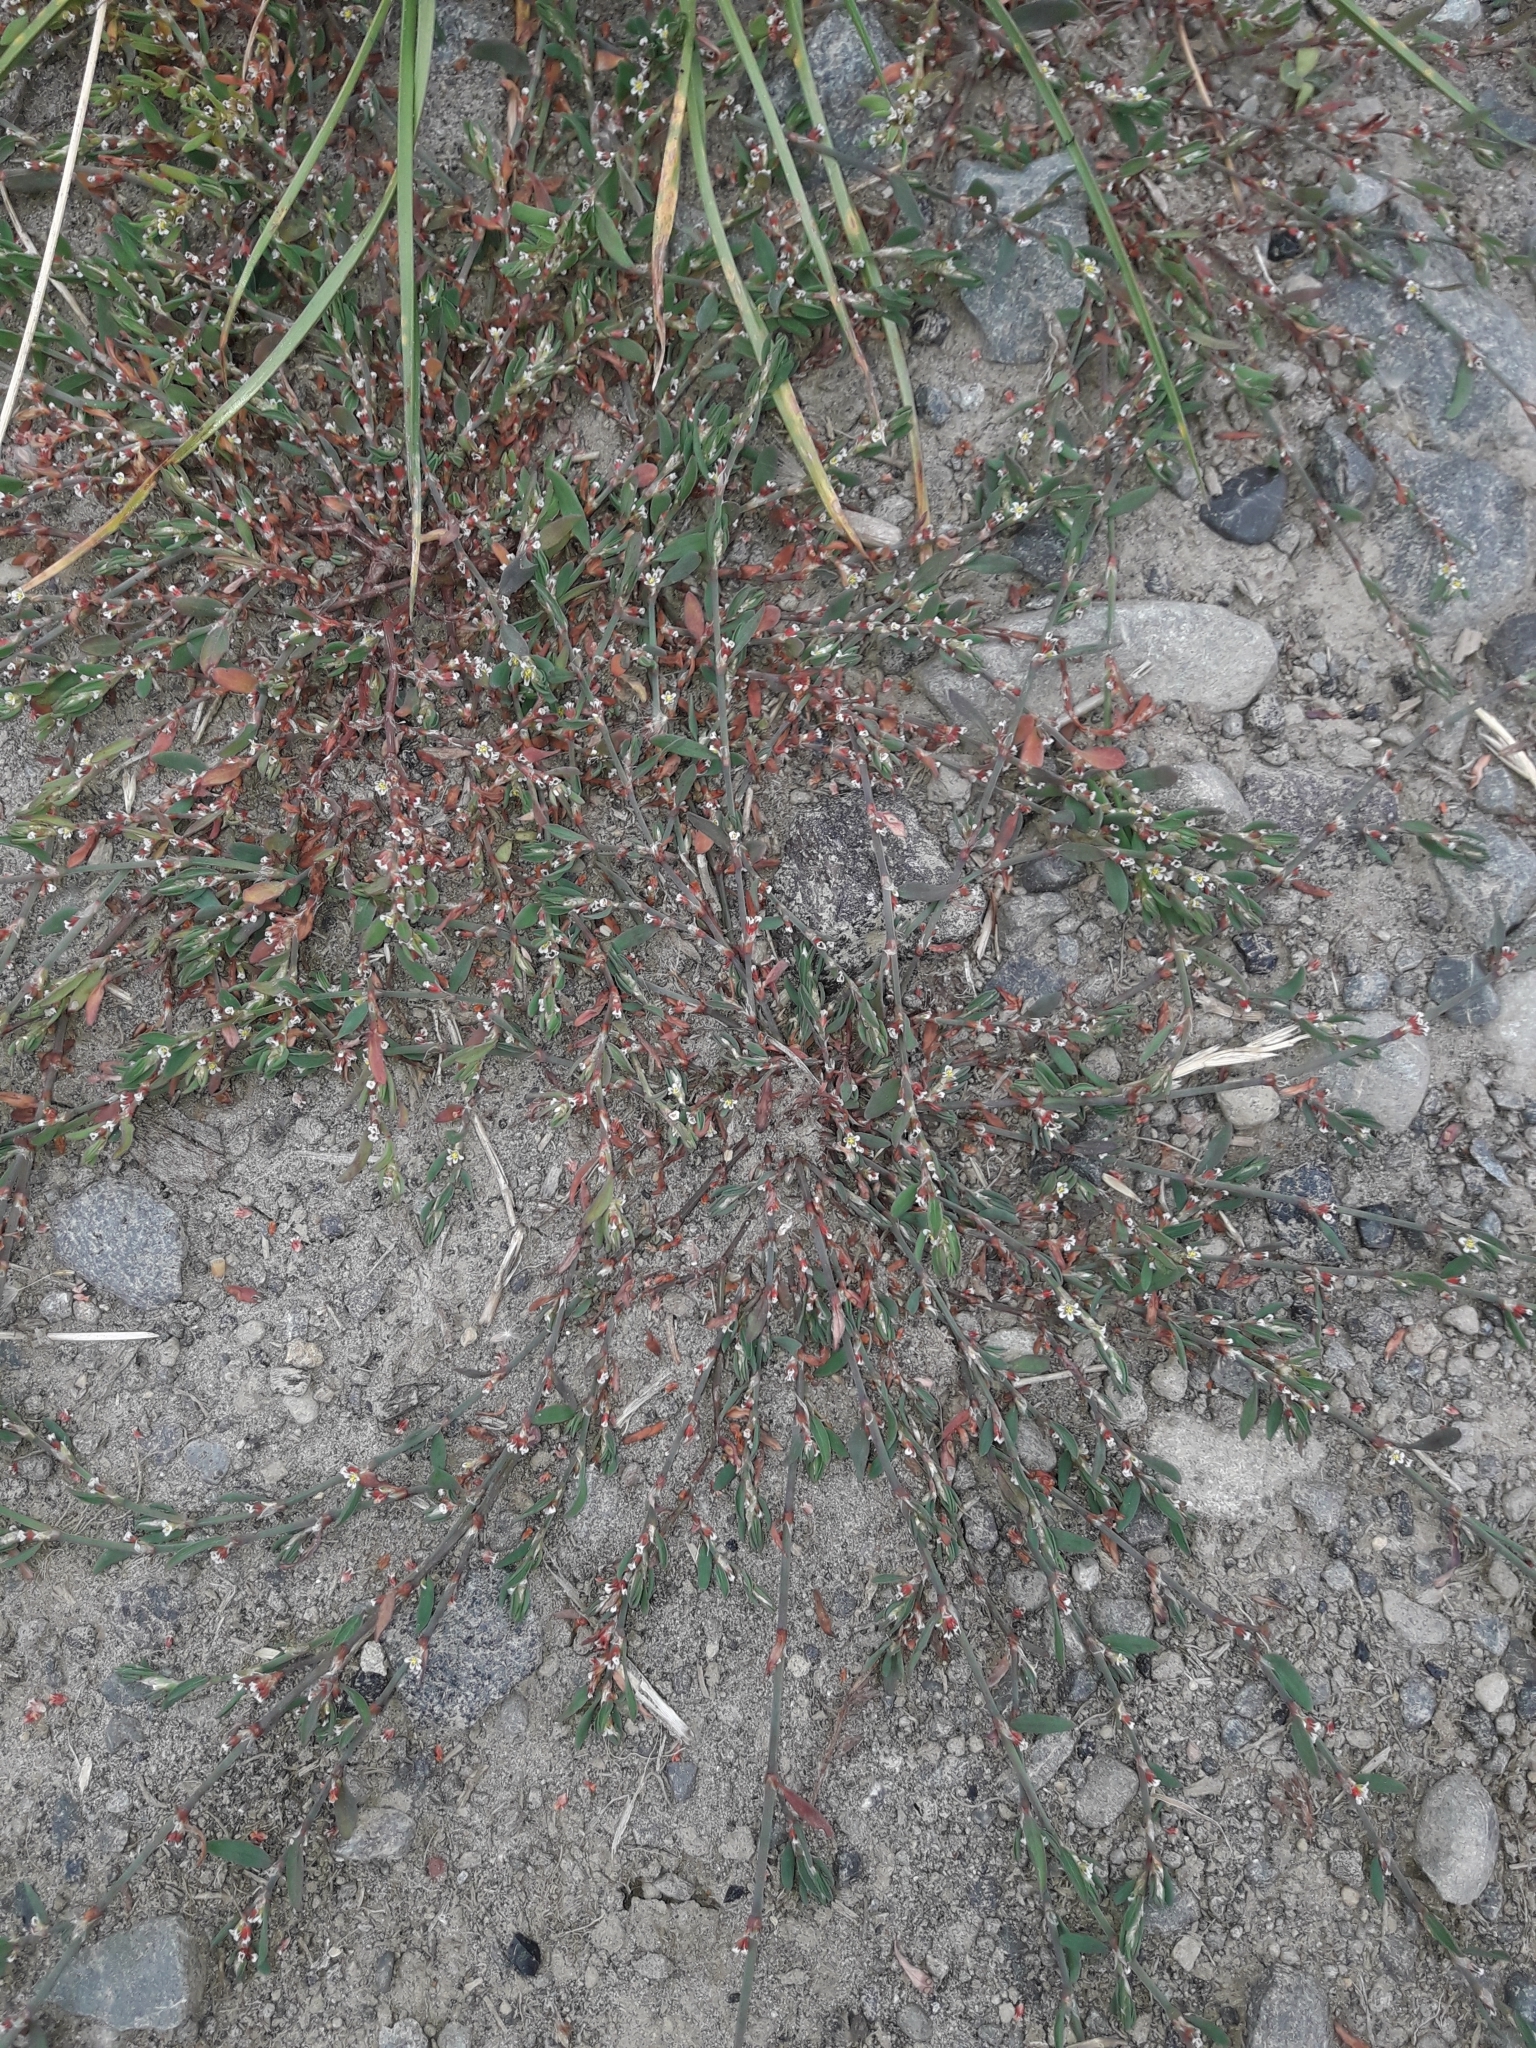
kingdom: Plantae
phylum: Tracheophyta
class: Magnoliopsida
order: Caryophyllales
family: Polygonaceae
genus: Polygonum
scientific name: Polygonum arenastrum
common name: Equal-leaved knotgrass
